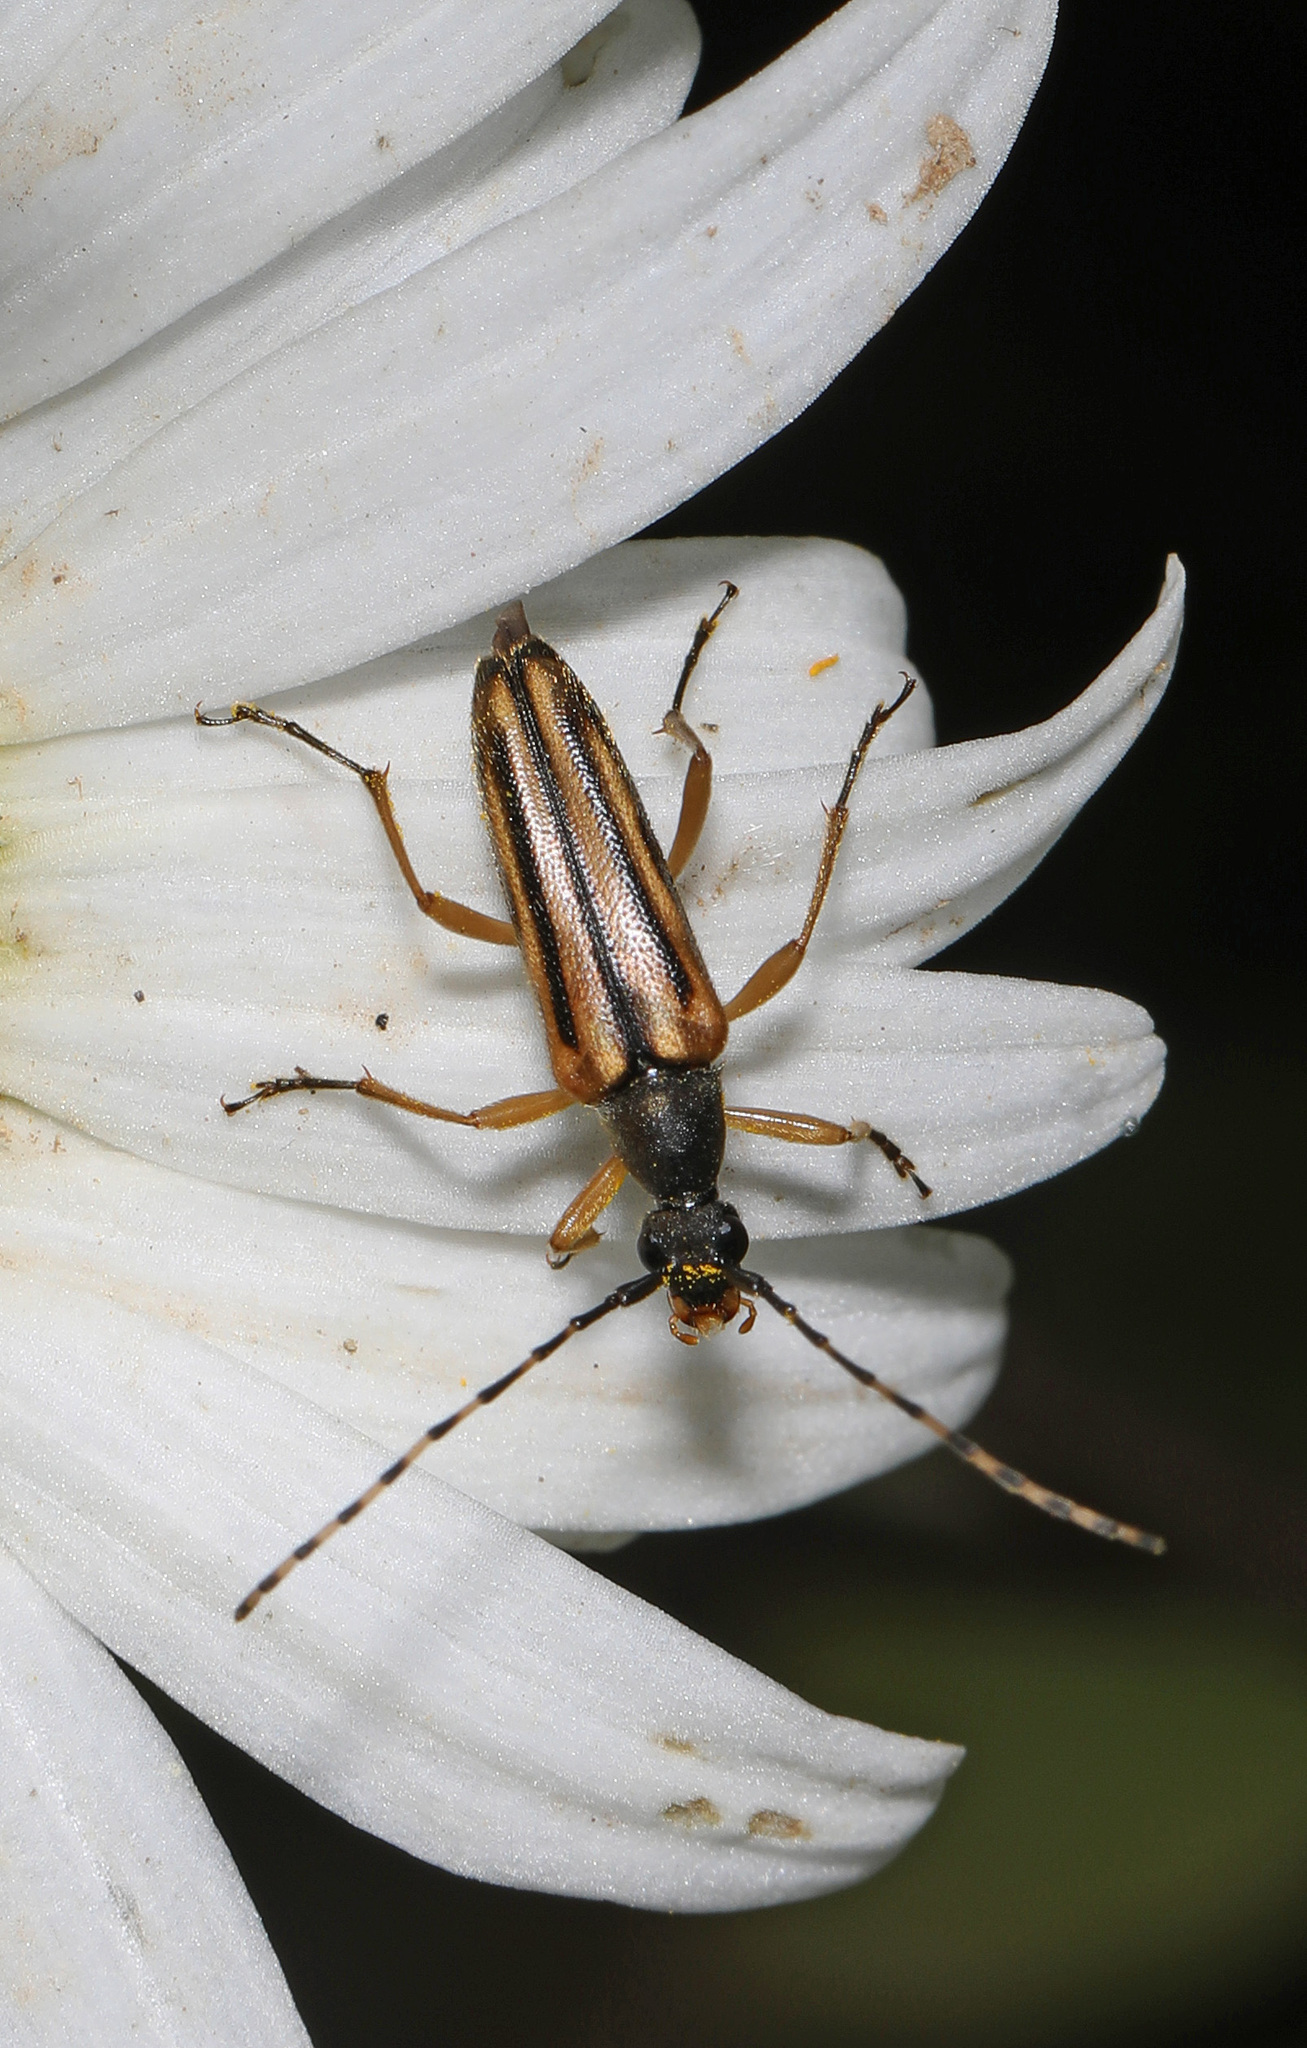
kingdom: Animalia
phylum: Arthropoda
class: Insecta
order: Coleoptera
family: Cerambycidae
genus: Analeptura
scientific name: Analeptura lineola
